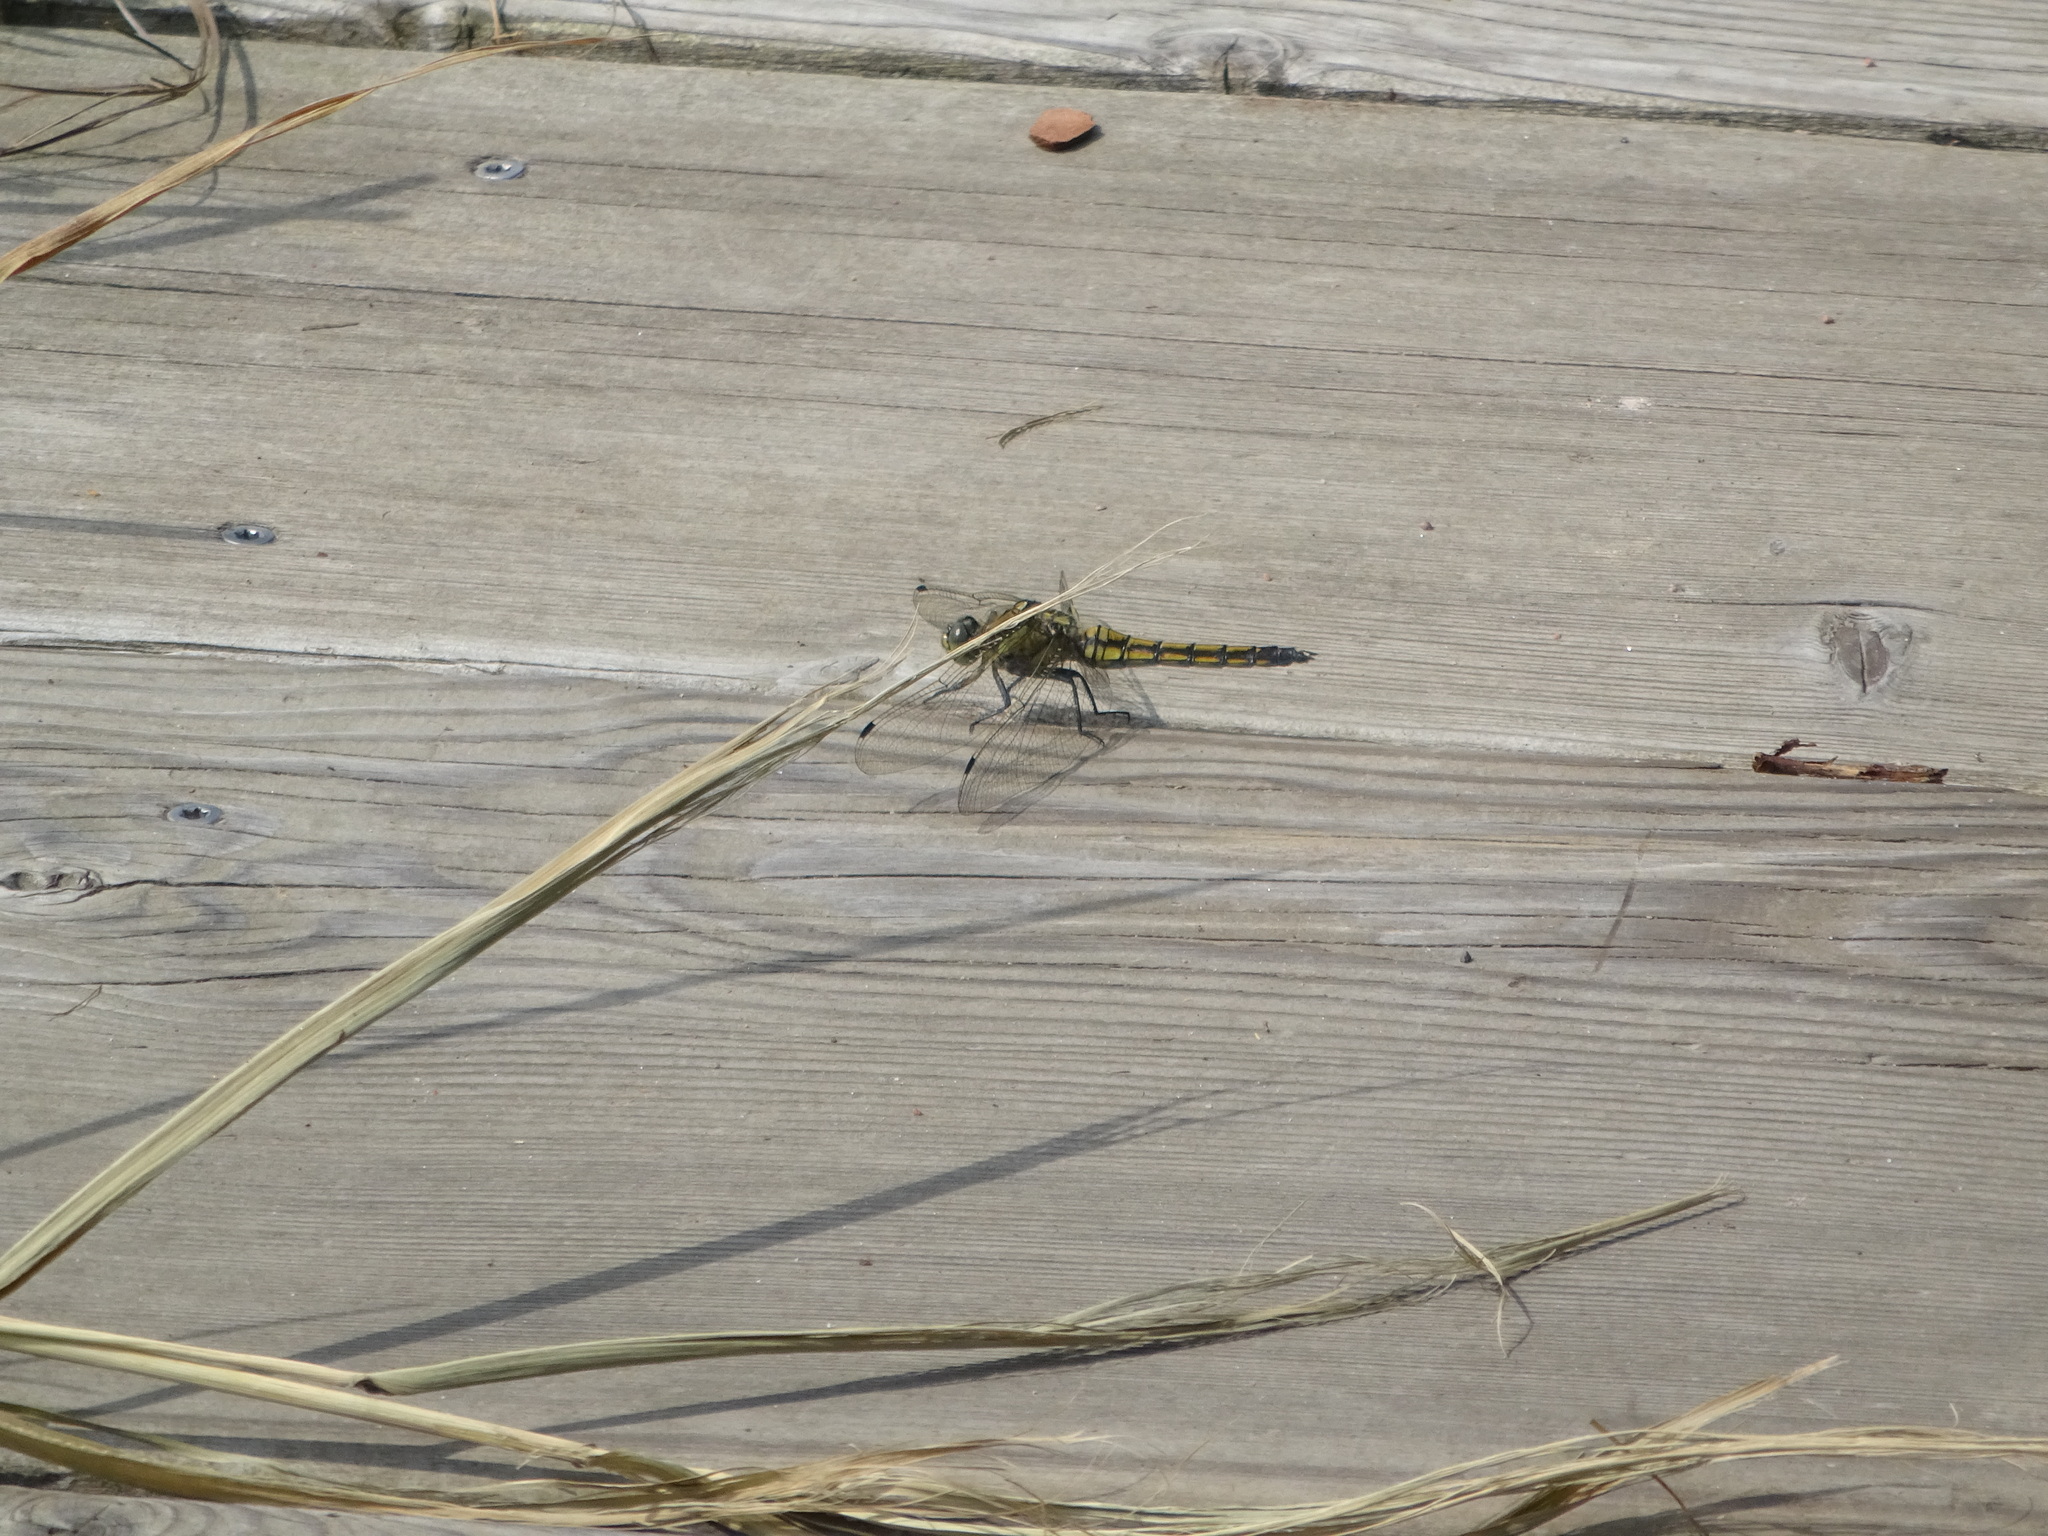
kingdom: Animalia
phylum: Arthropoda
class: Insecta
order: Odonata
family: Libellulidae
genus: Orthetrum
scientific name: Orthetrum cancellatum
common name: Black-tailed skimmer
